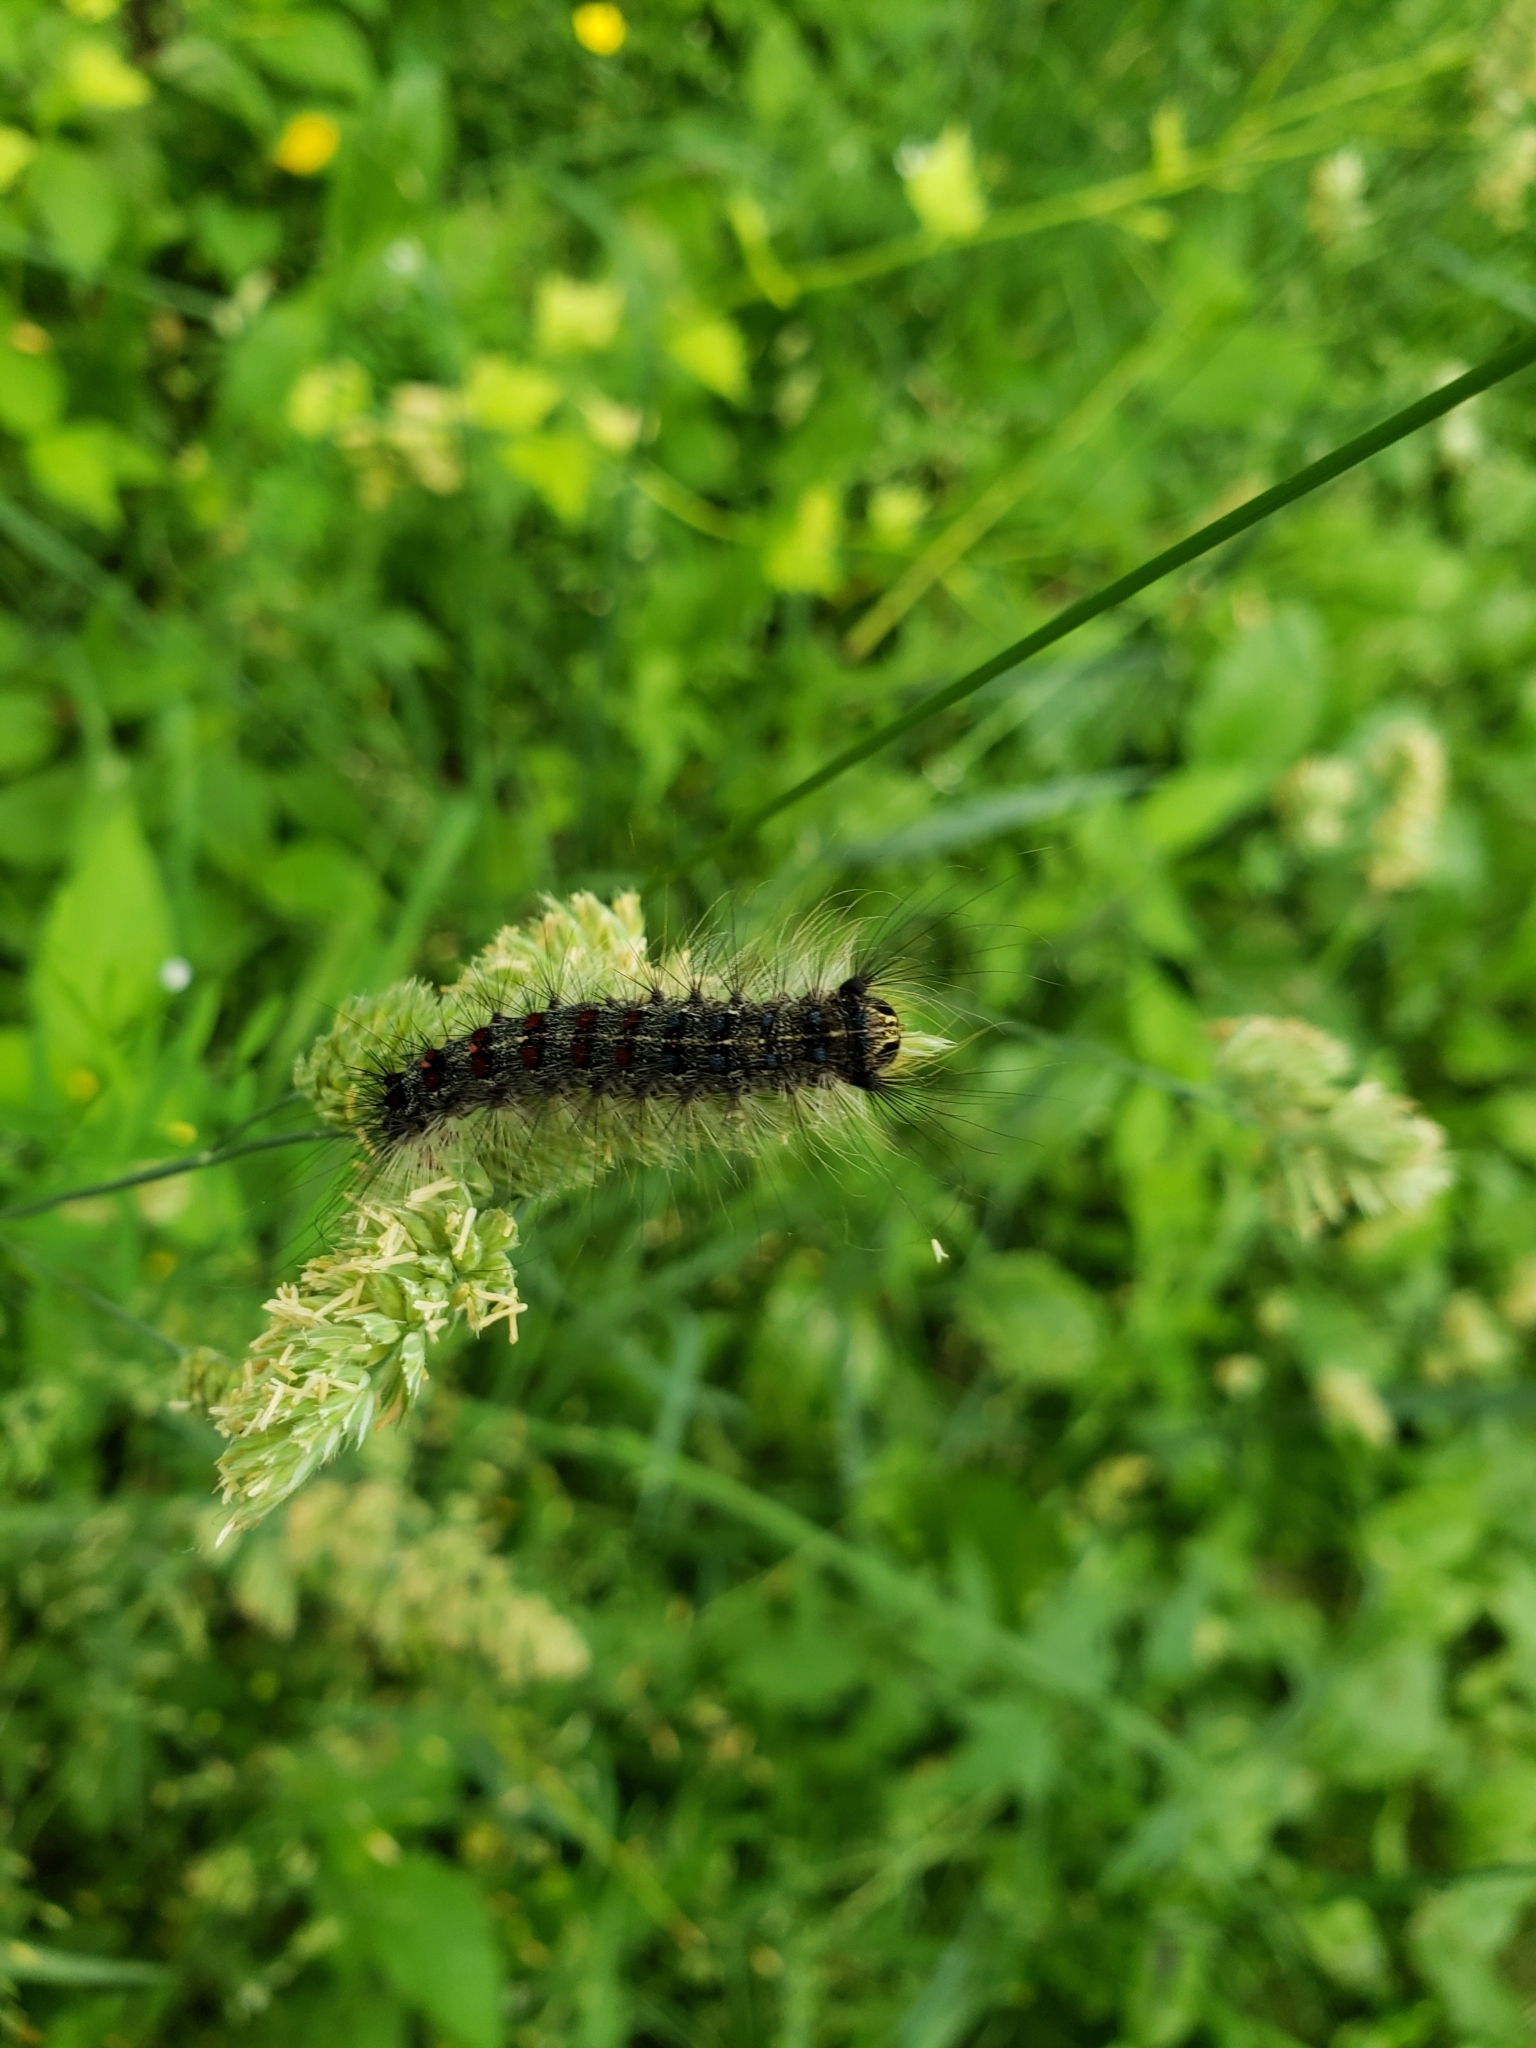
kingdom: Animalia
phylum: Arthropoda
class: Insecta
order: Lepidoptera
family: Erebidae
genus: Lymantria
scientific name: Lymantria dispar
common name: Gypsy moth
